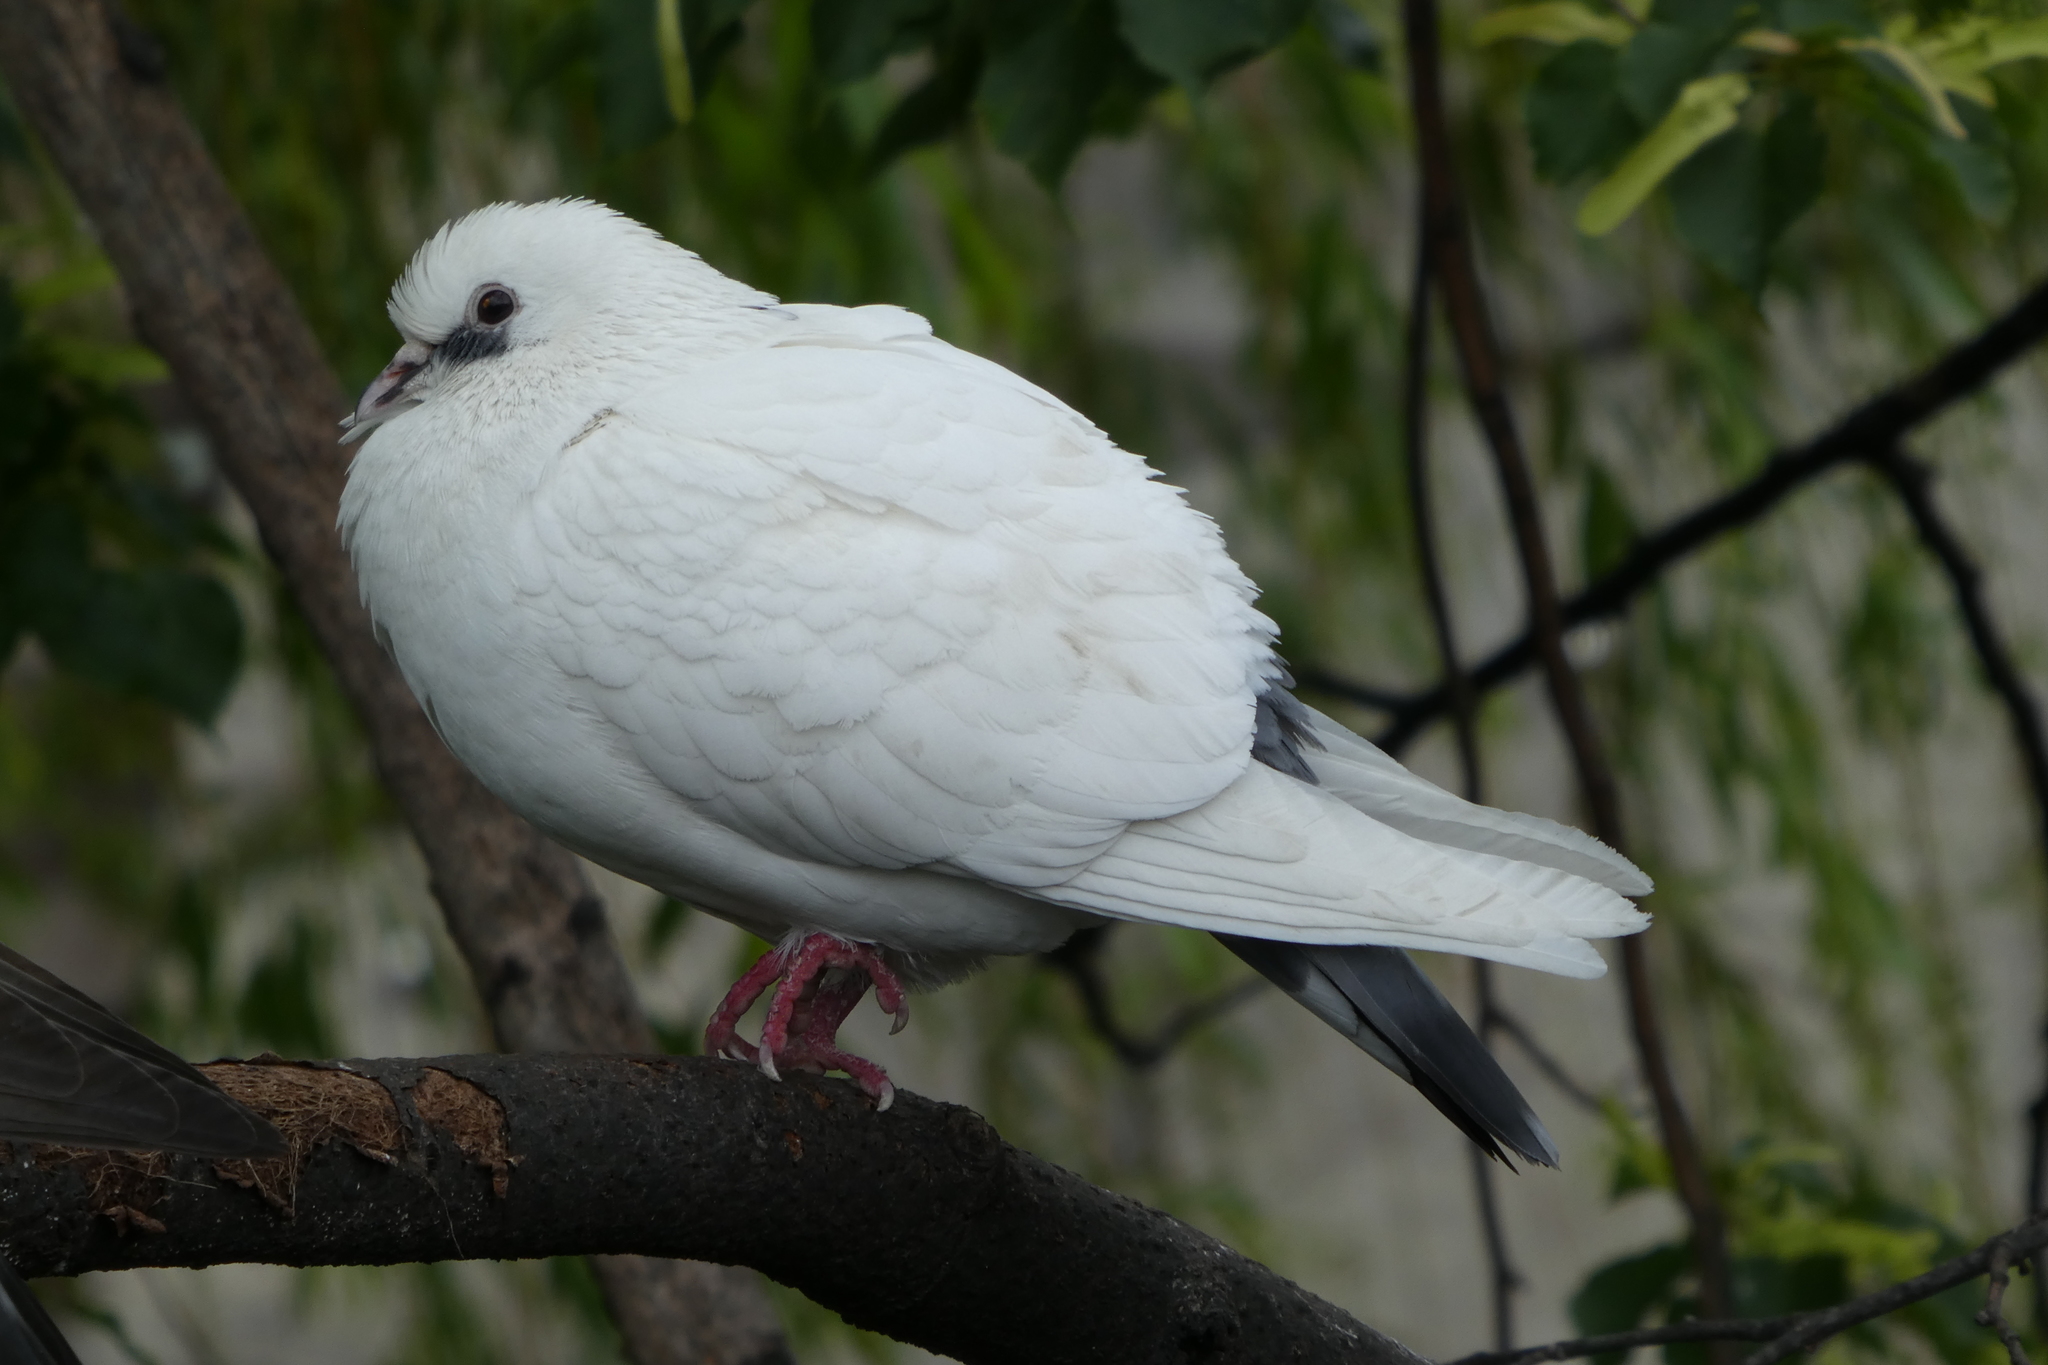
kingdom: Animalia
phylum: Chordata
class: Aves
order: Columbiformes
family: Columbidae
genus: Columba
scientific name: Columba livia
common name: Rock pigeon
